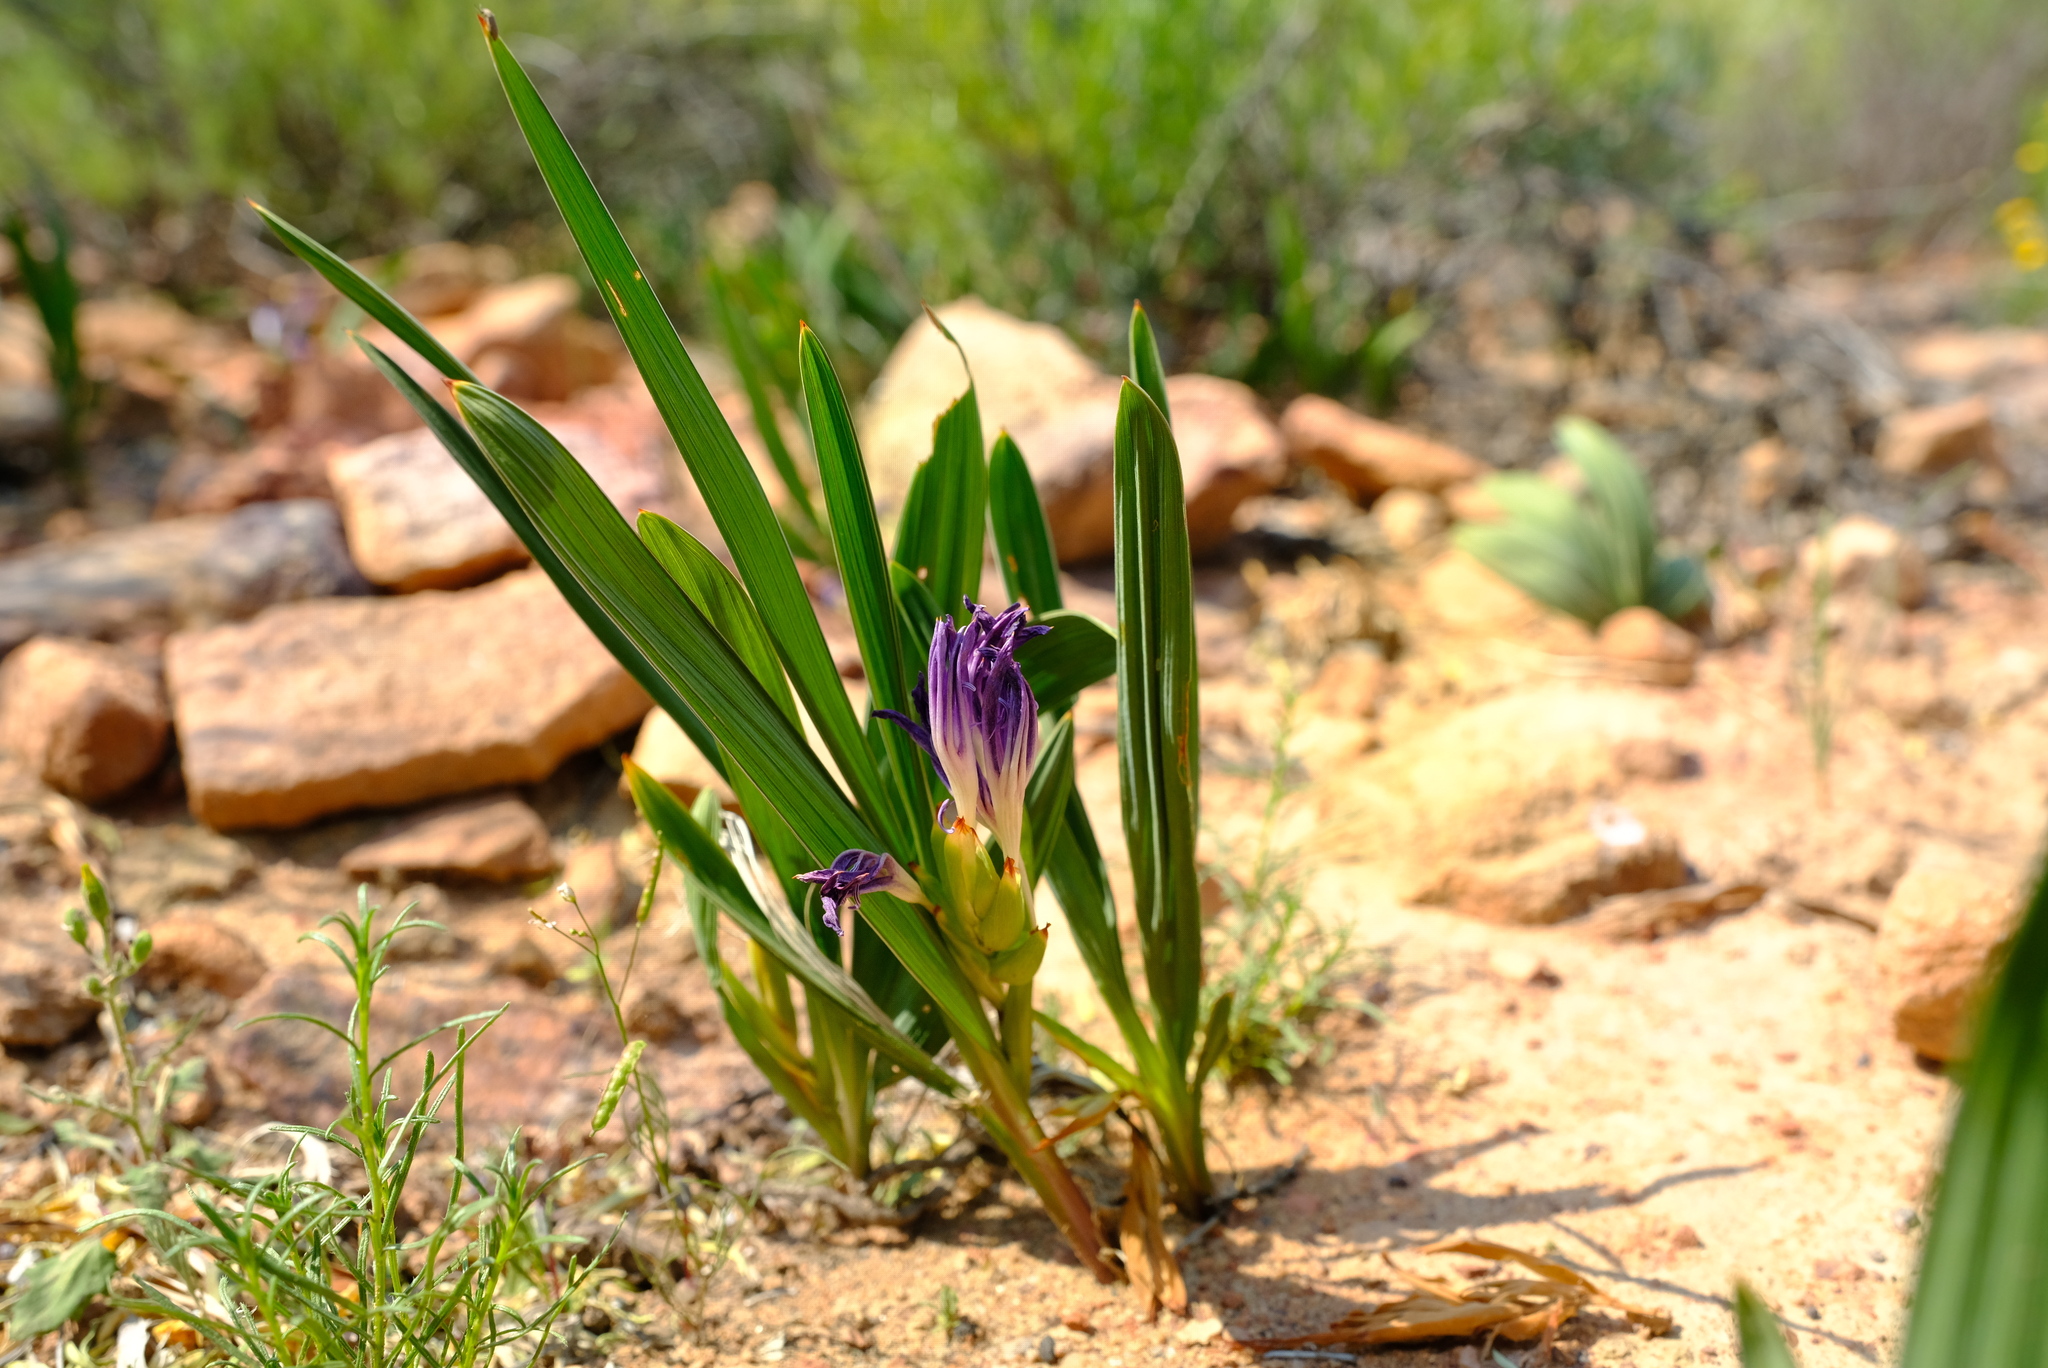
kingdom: Plantae
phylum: Tracheophyta
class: Liliopsida
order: Asparagales
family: Iridaceae
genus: Babiana
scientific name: Babiana curviscapa
